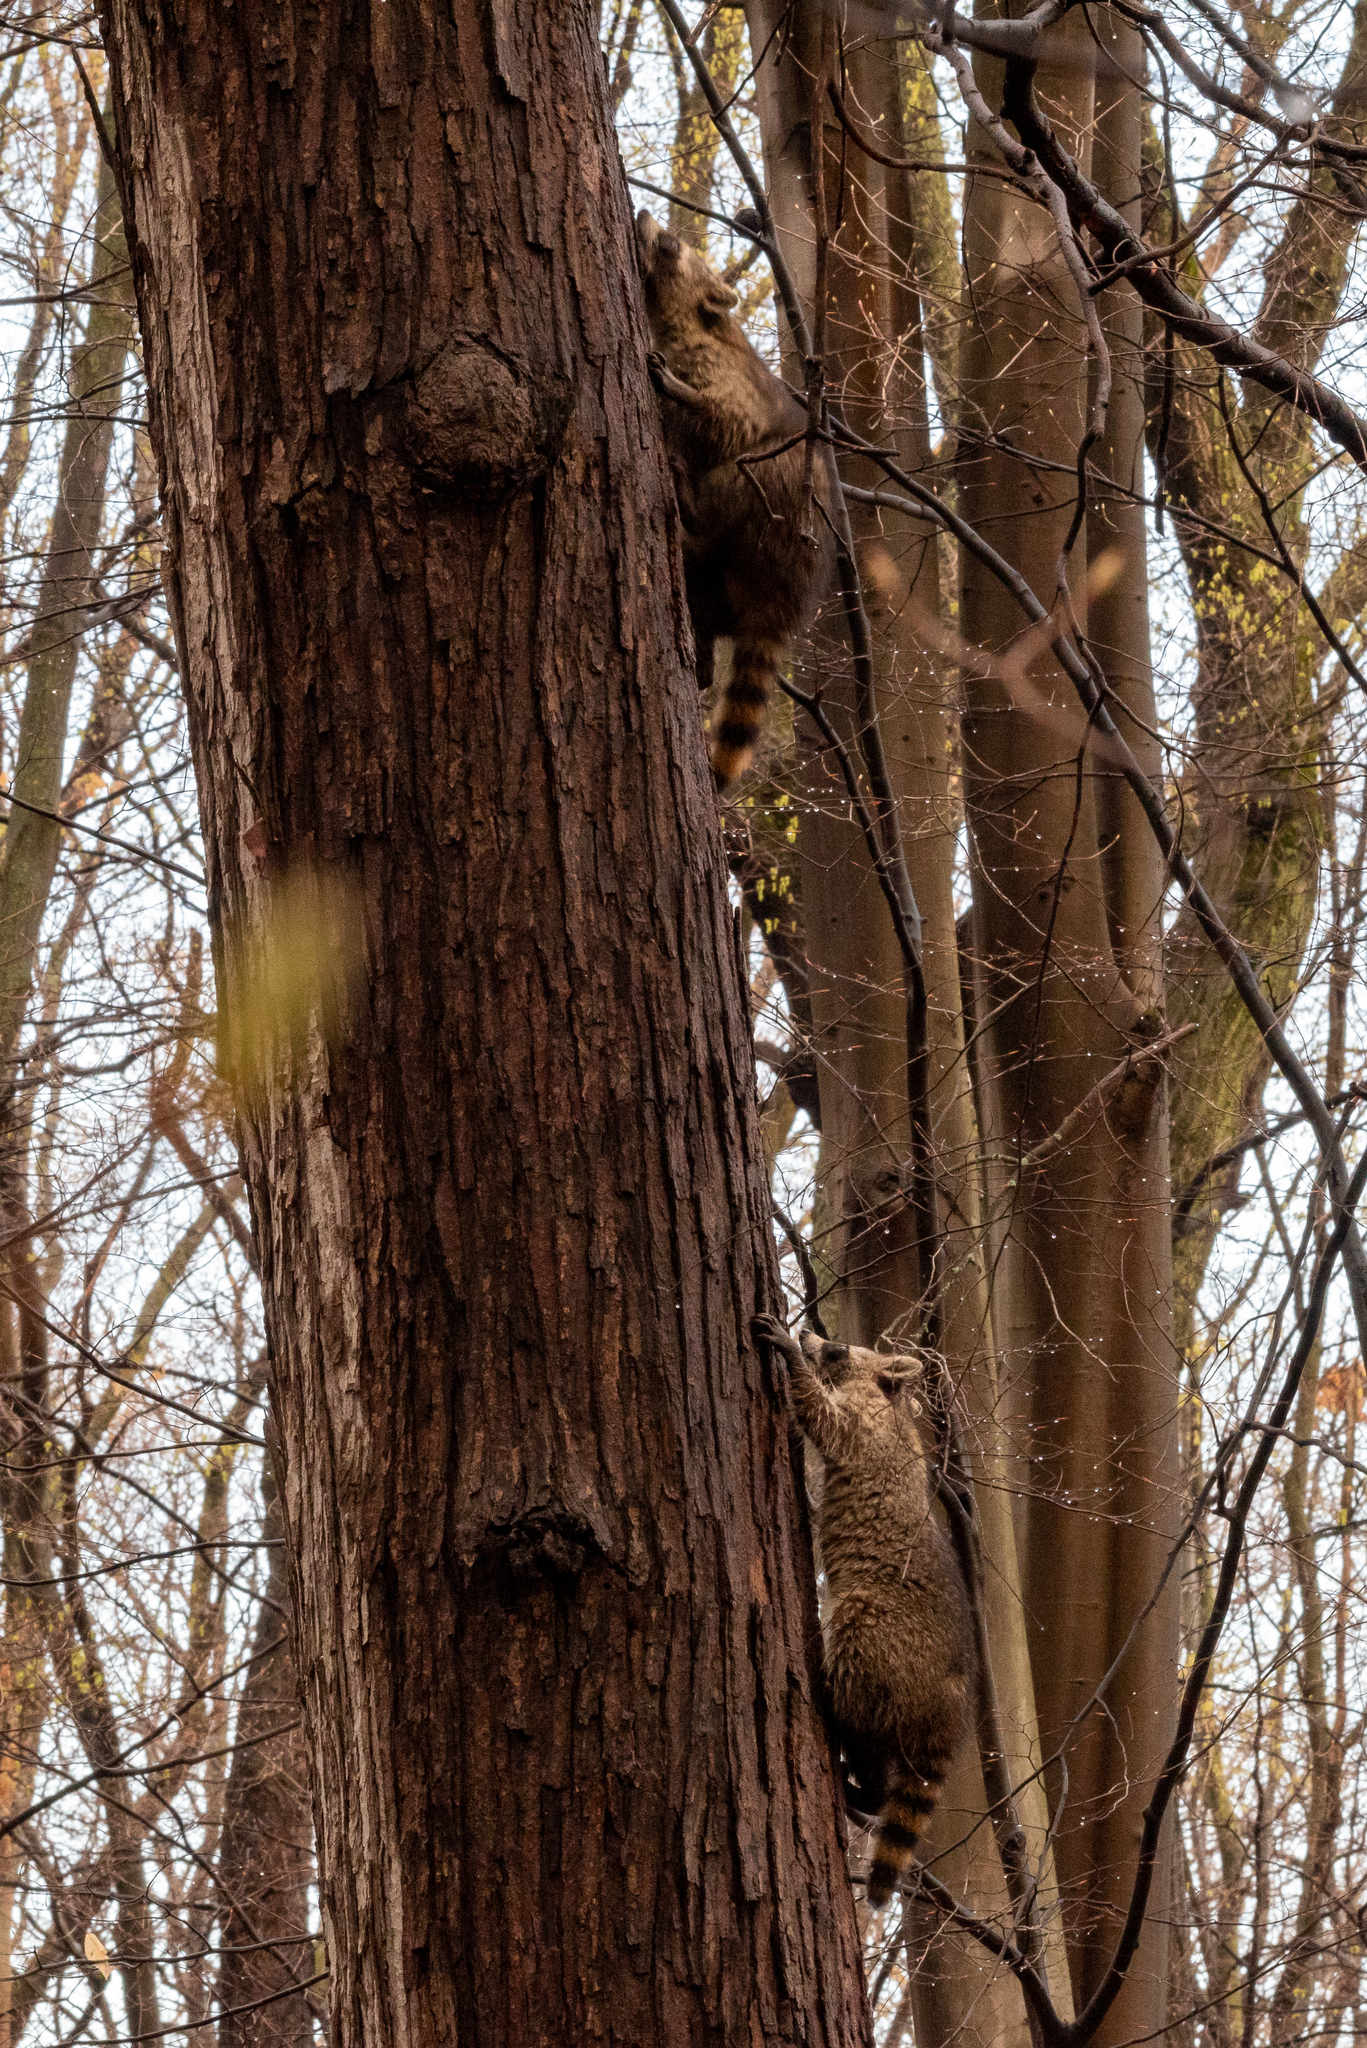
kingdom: Animalia
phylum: Chordata
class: Mammalia
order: Carnivora
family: Procyonidae
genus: Procyon
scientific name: Procyon lotor
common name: Raccoon
